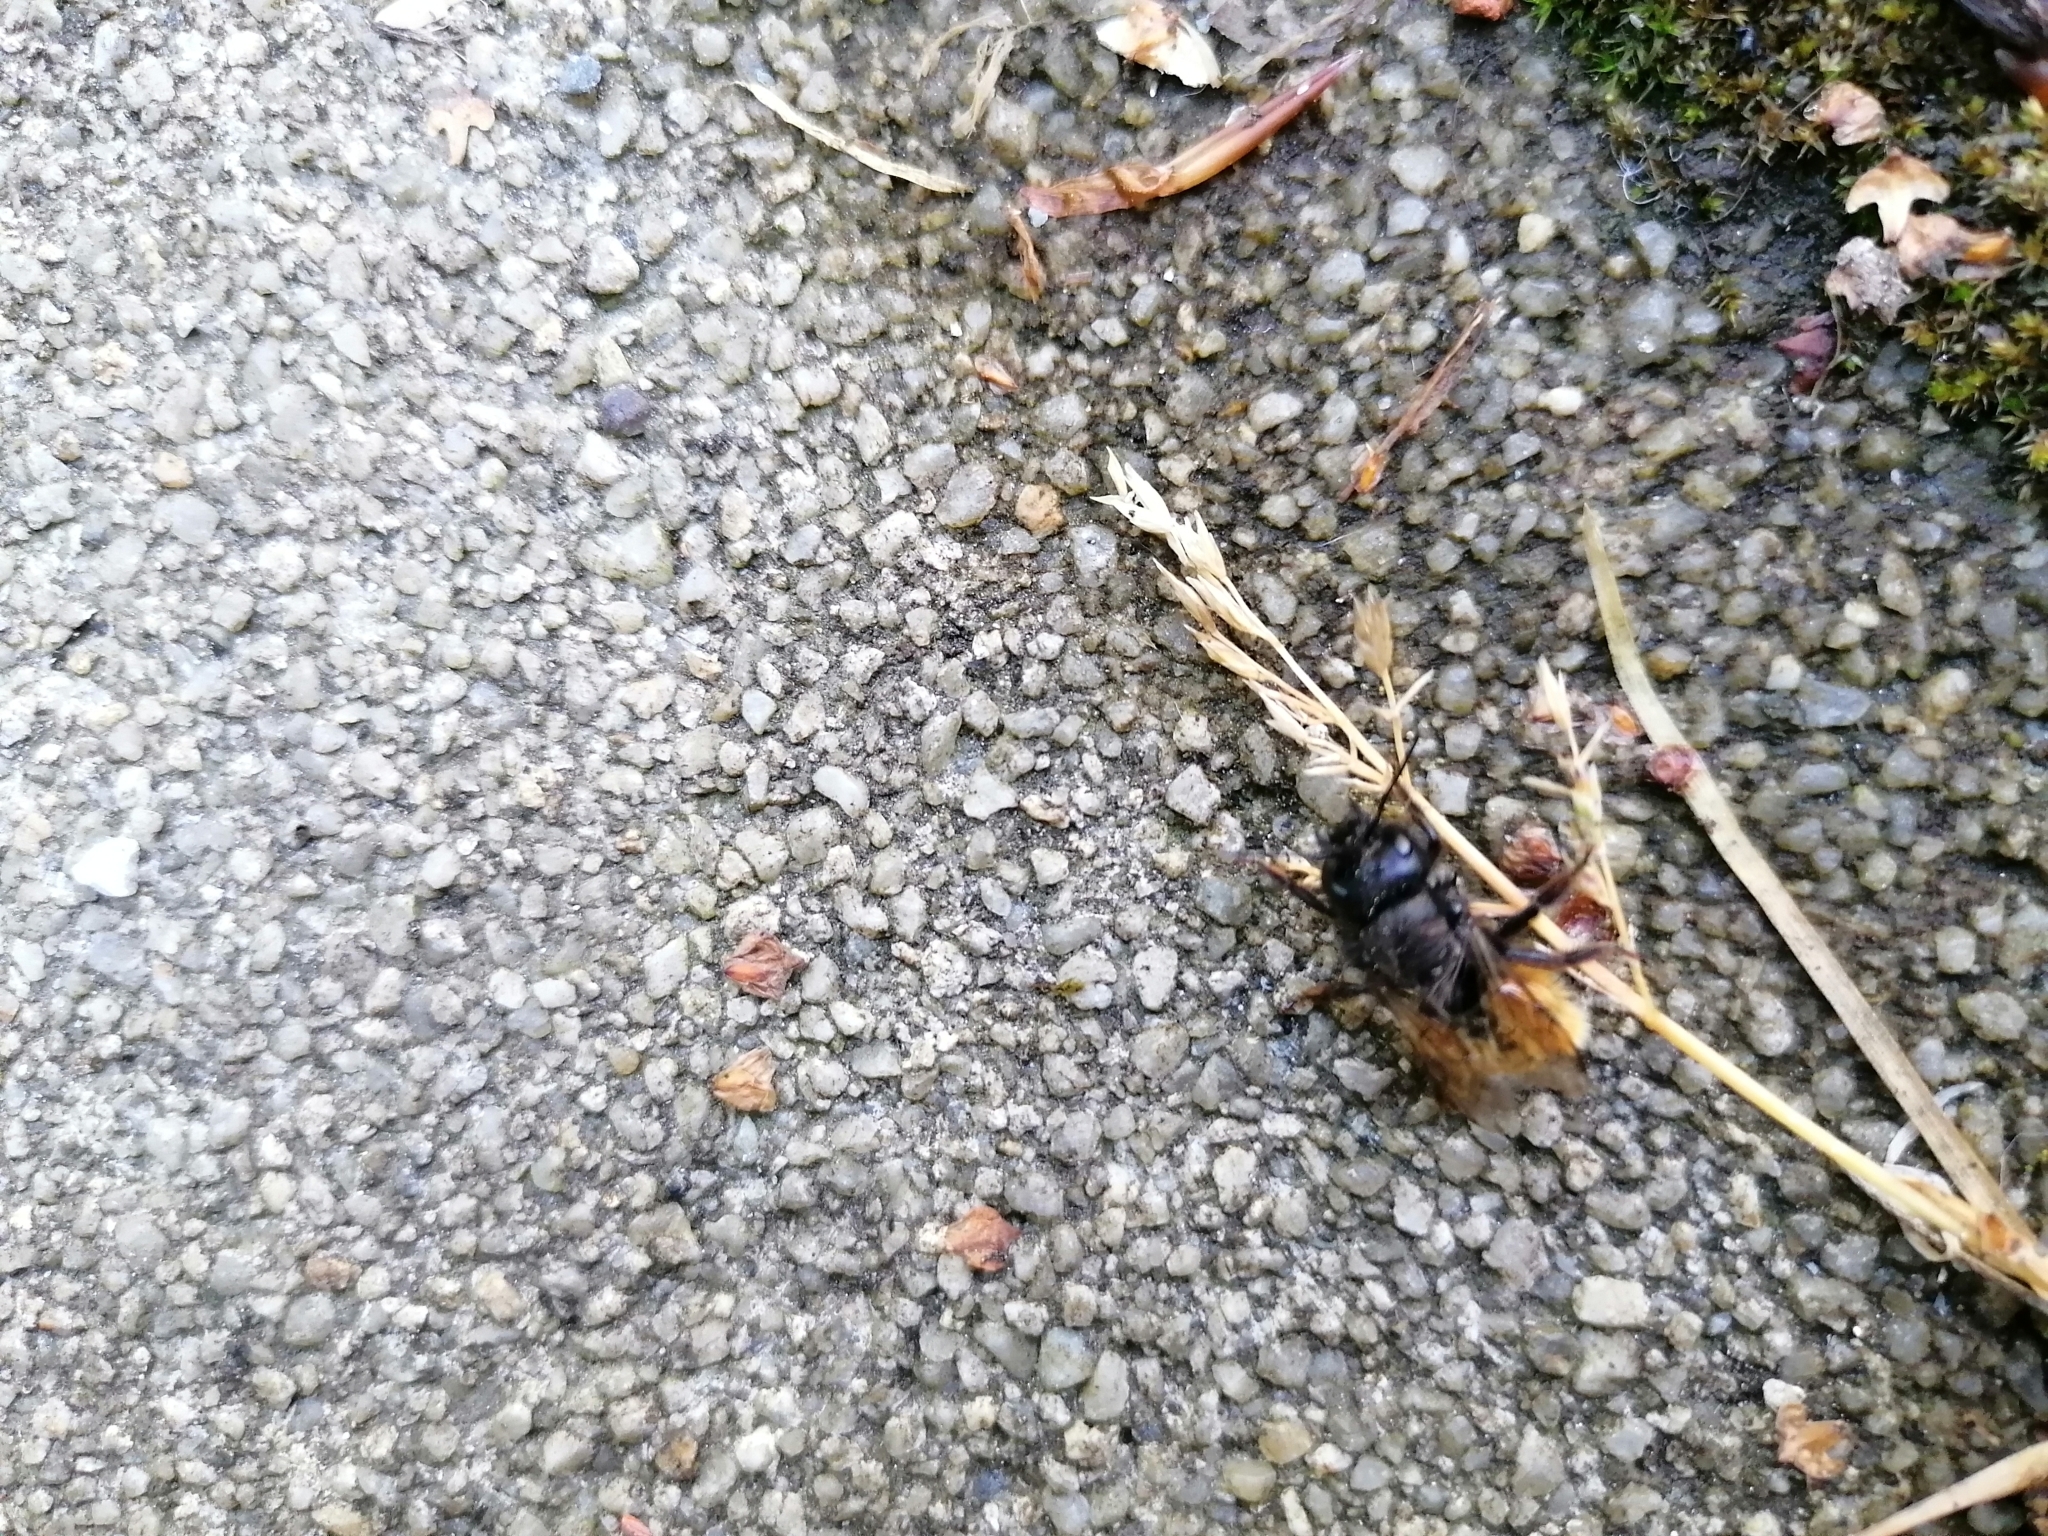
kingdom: Animalia
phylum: Arthropoda
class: Insecta
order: Hymenoptera
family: Megachilidae
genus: Osmia
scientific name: Osmia cornuta
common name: Mason bee
